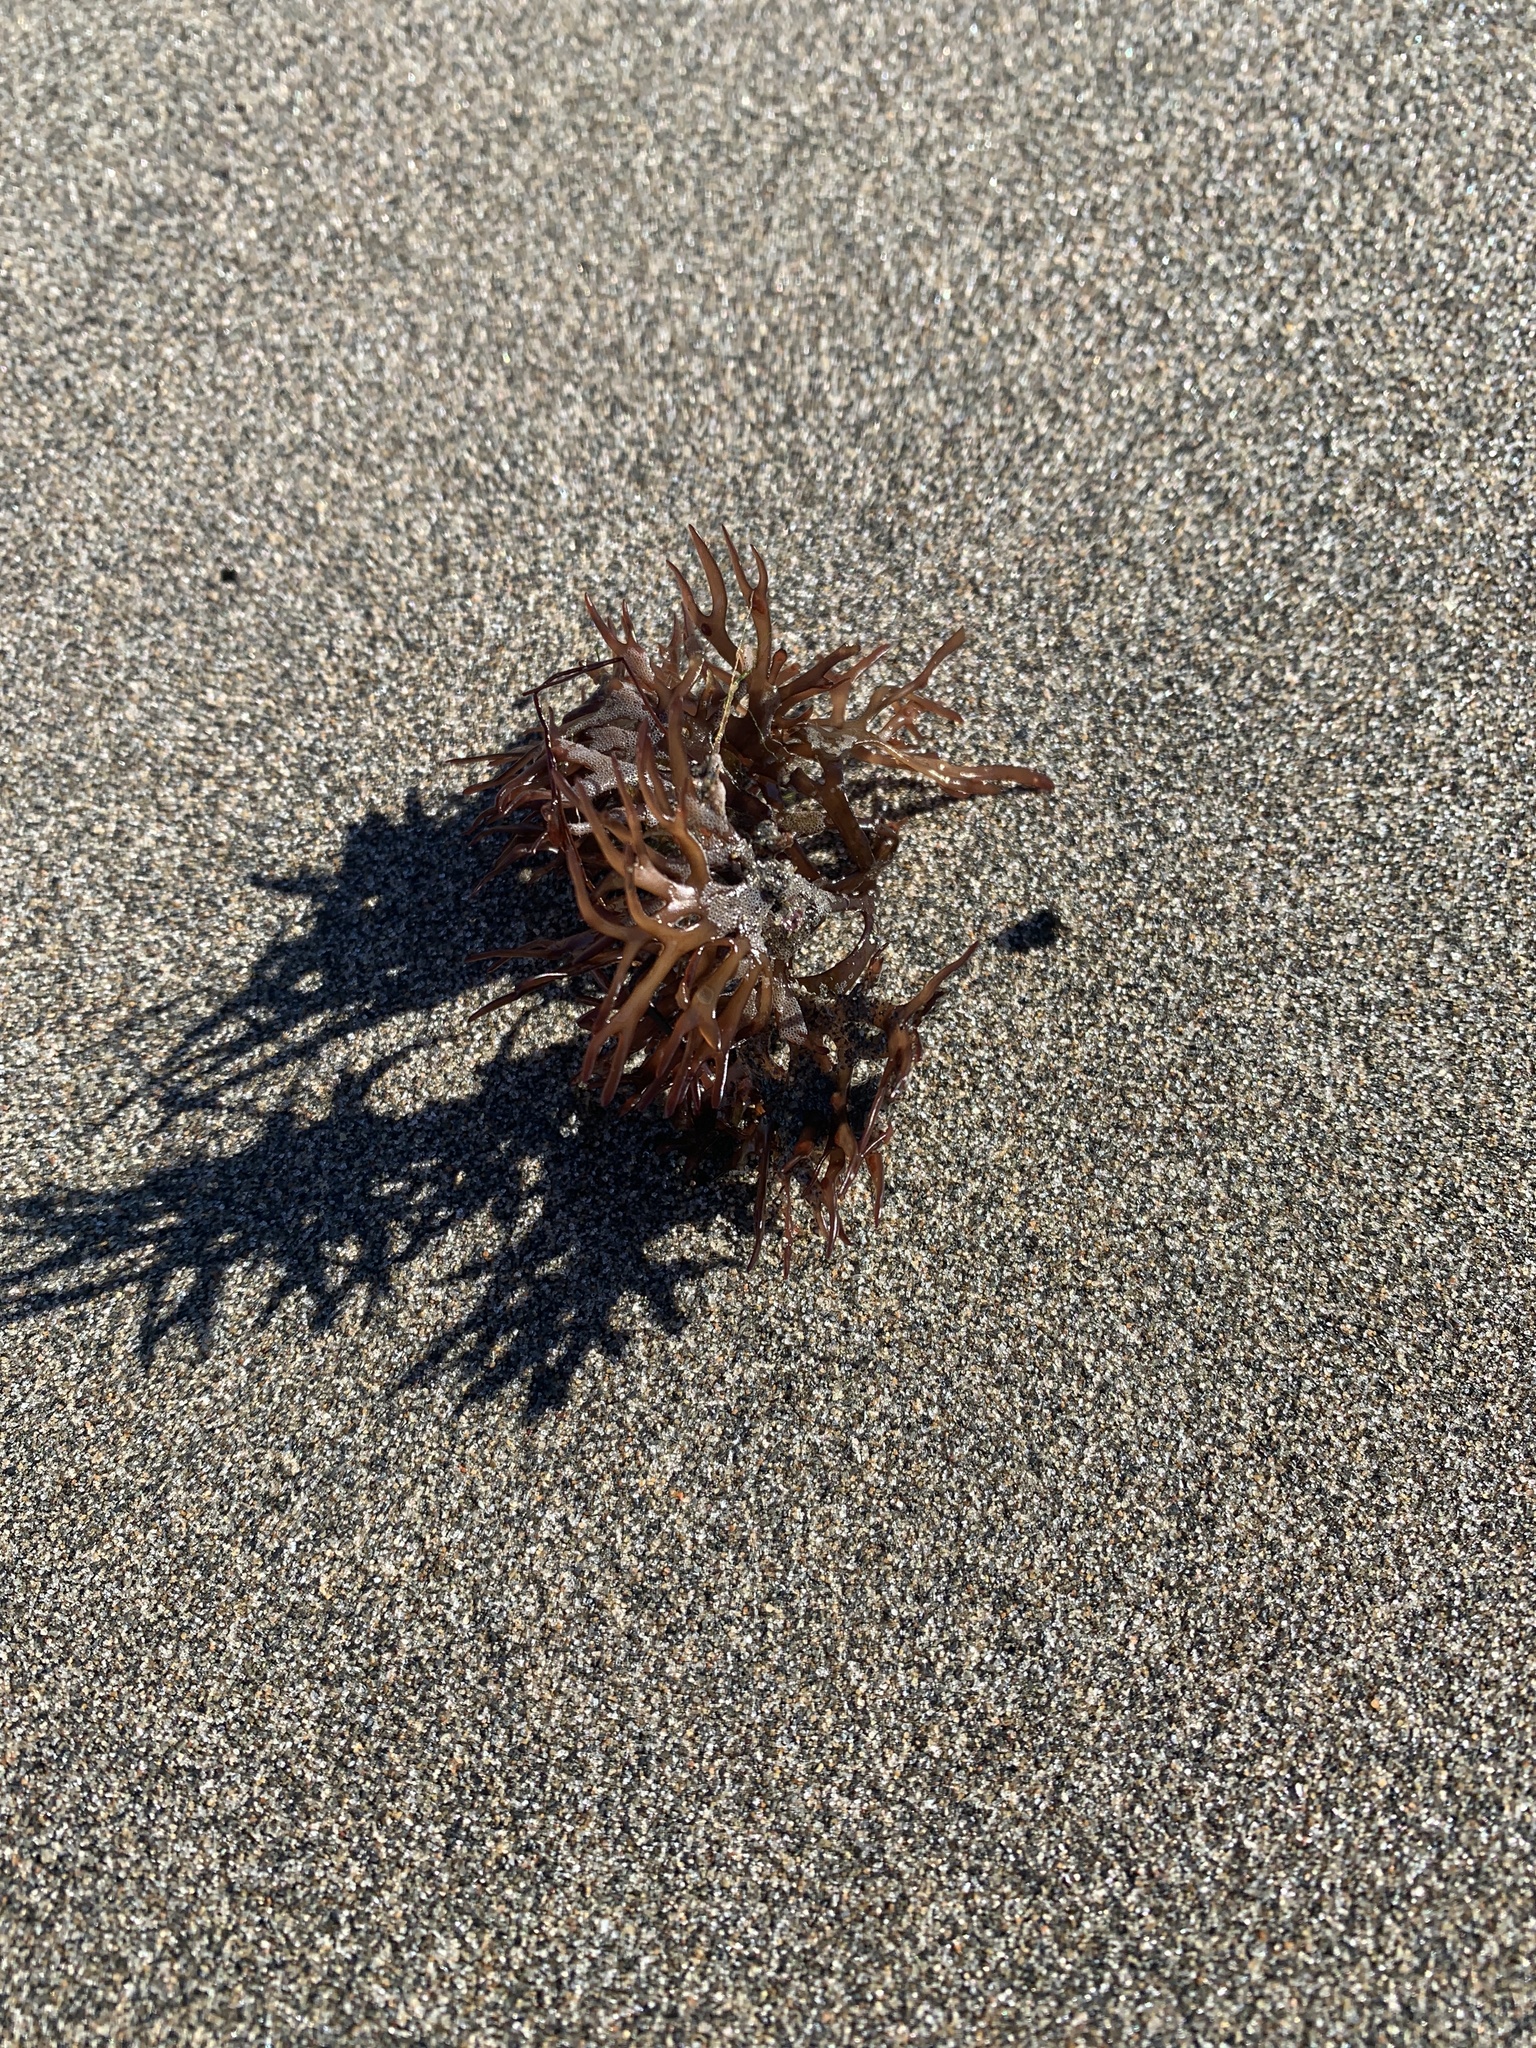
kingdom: Plantae
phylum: Rhodophyta
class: Florideophyceae
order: Gigartinales
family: Gigartinaceae
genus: Chondrus
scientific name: Chondrus crispus
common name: Carrageen
